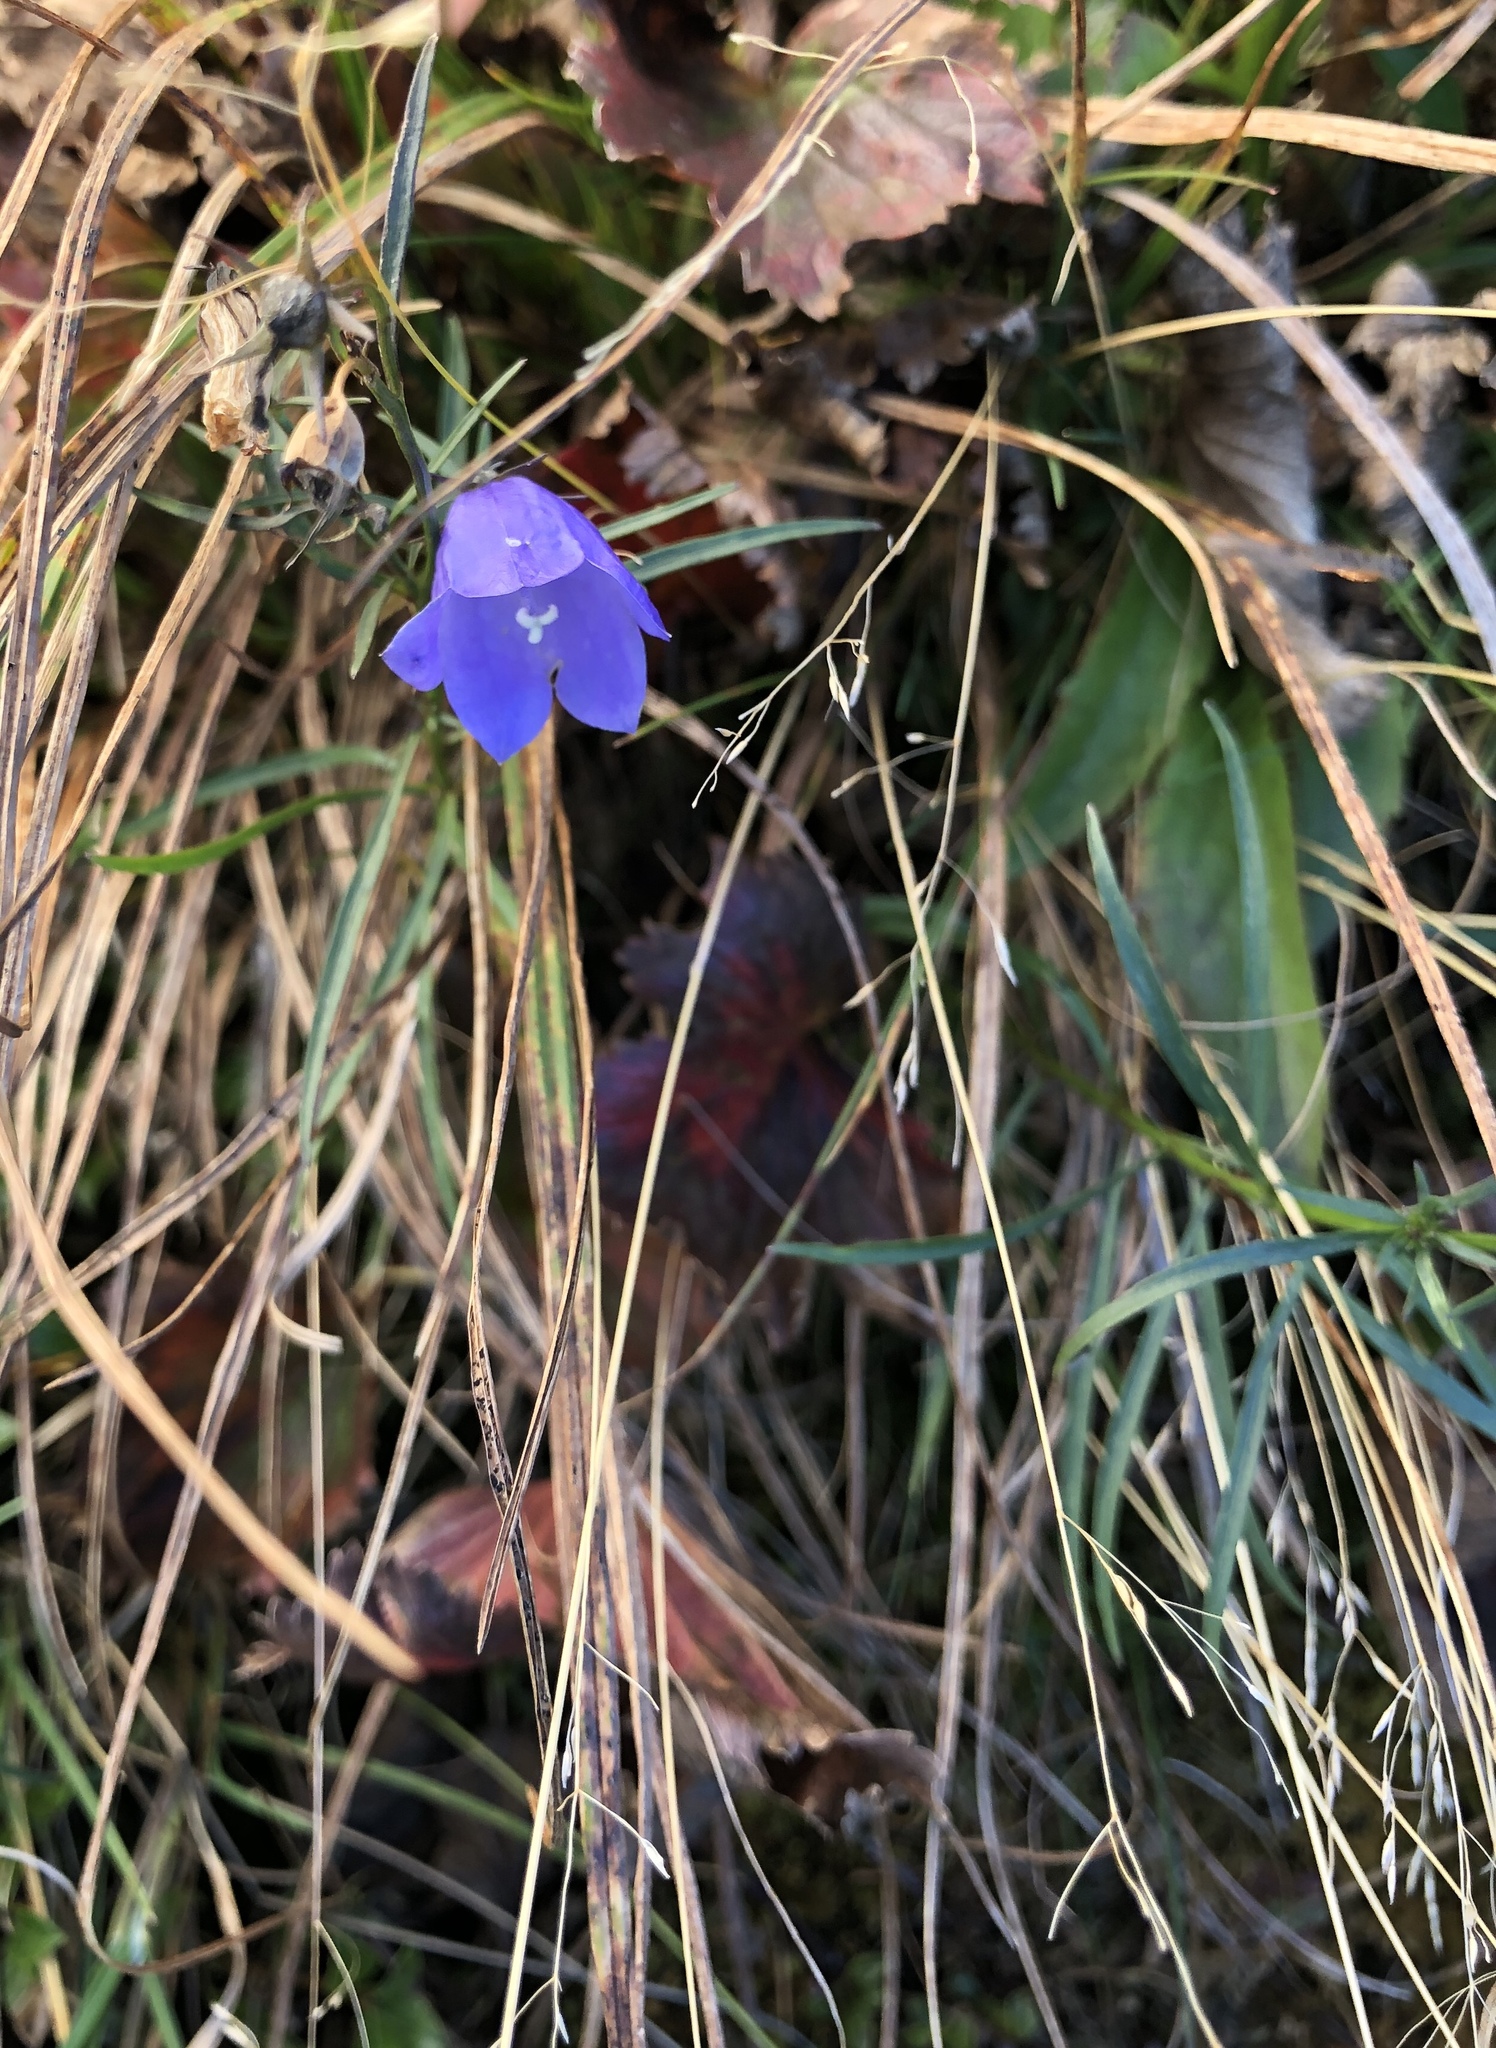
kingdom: Plantae
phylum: Tracheophyta
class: Magnoliopsida
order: Asterales
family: Campanulaceae
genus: Campanula
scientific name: Campanula intercedens
